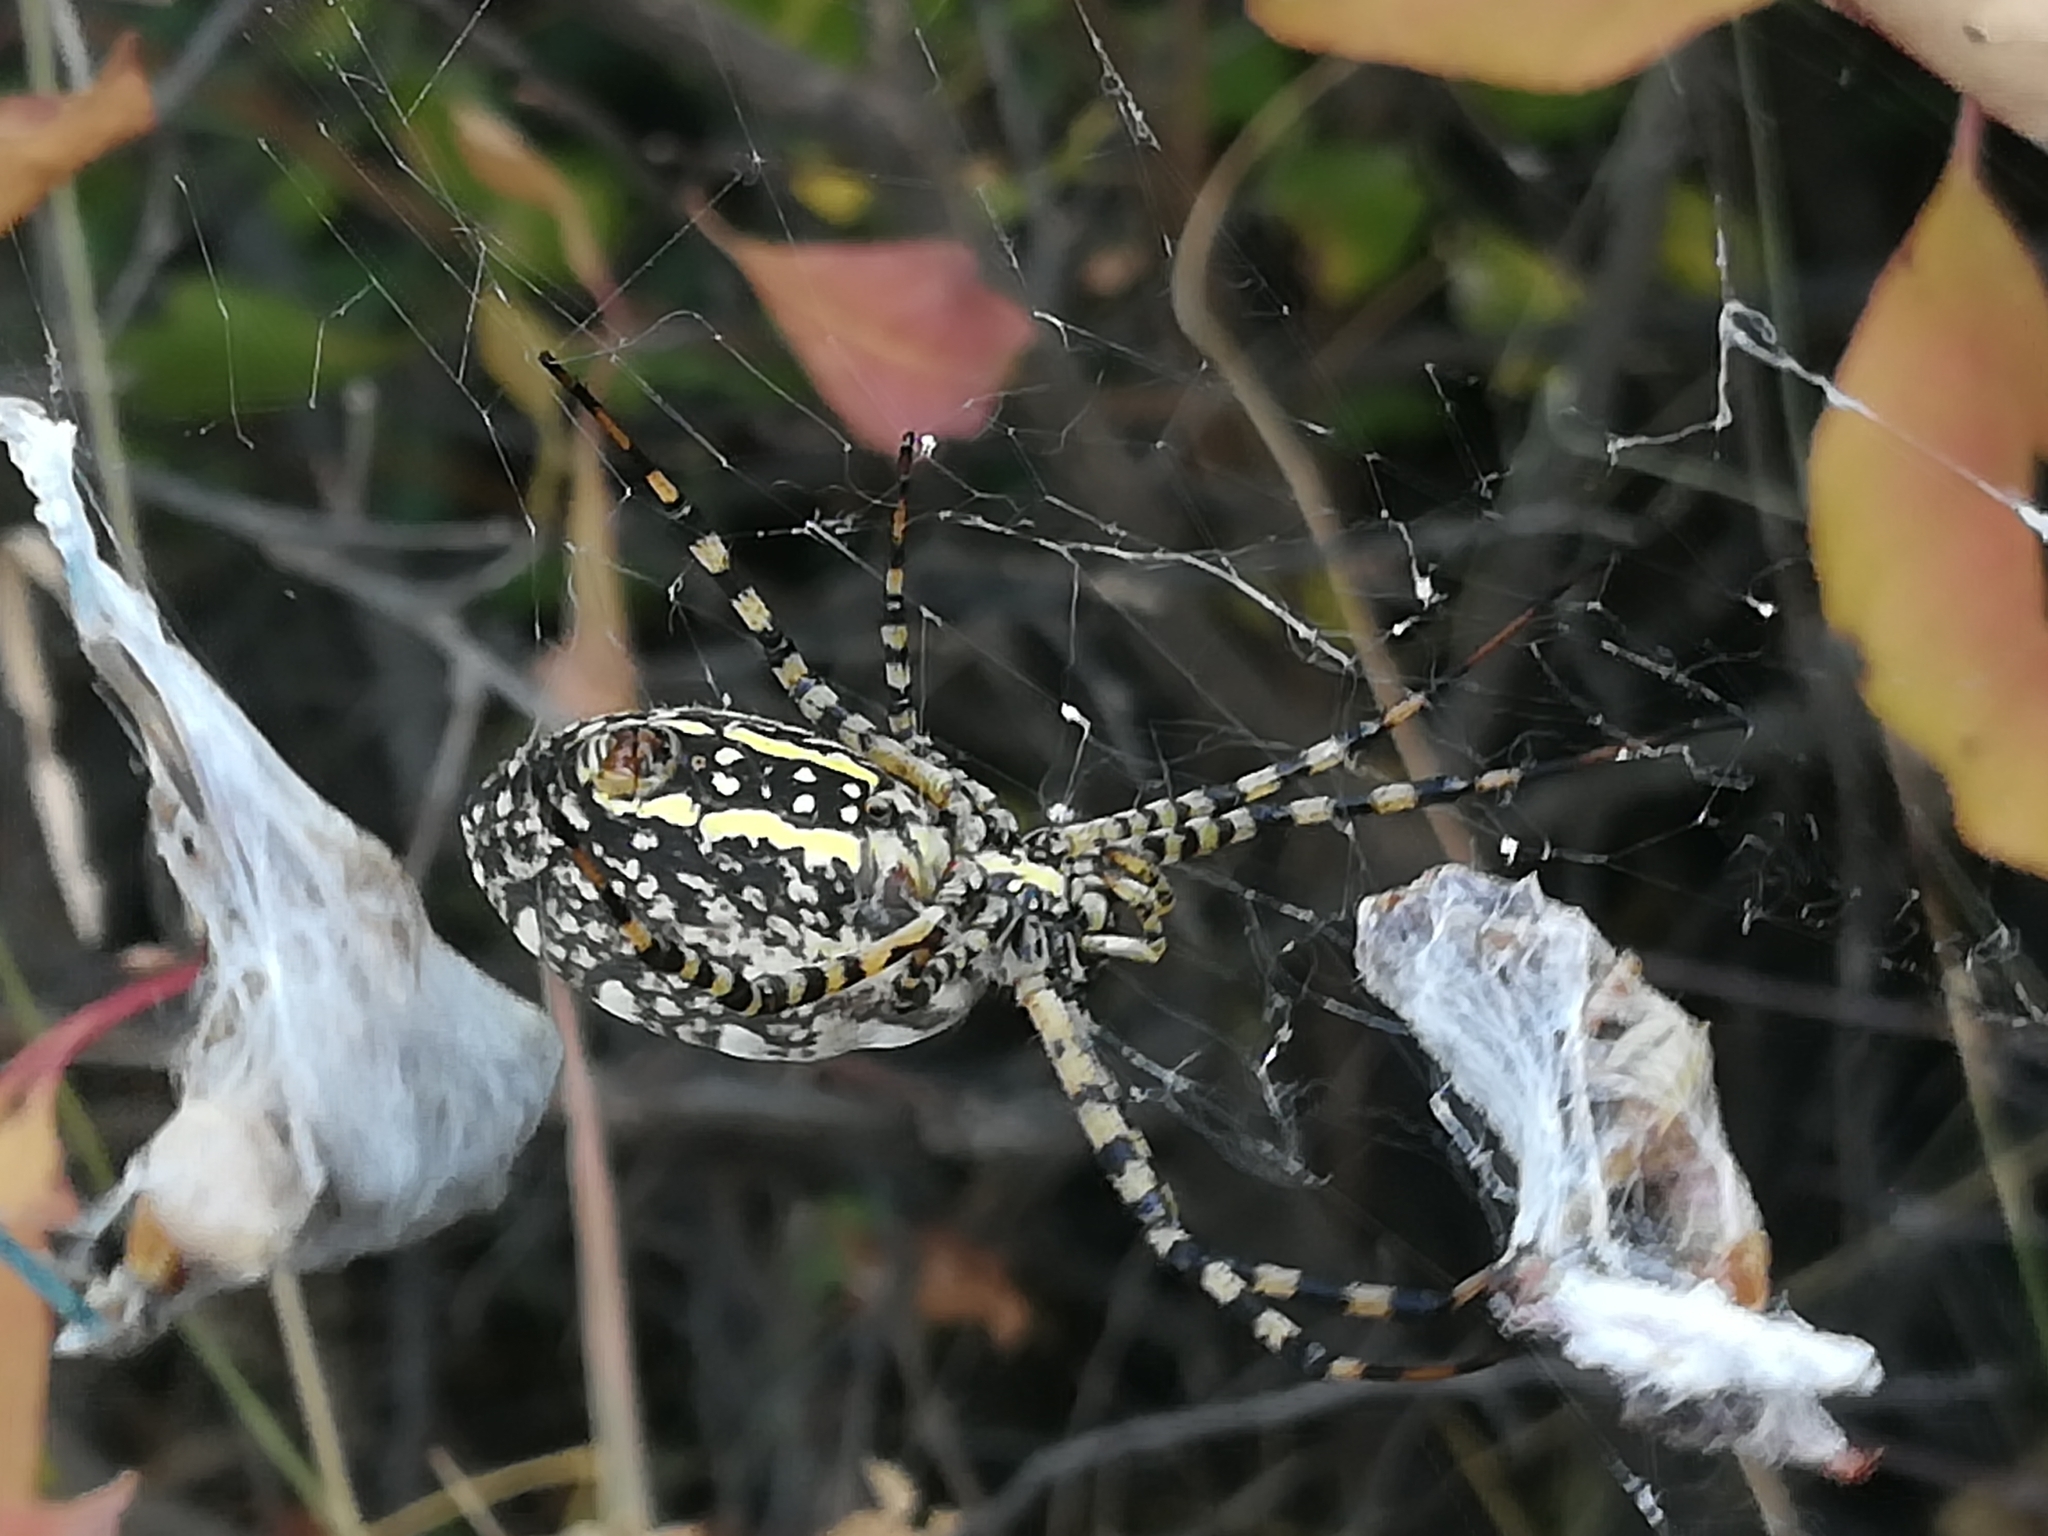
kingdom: Animalia
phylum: Arthropoda
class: Arachnida
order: Araneae
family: Araneidae
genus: Argiope
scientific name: Argiope trifasciata
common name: Banded garden spider
